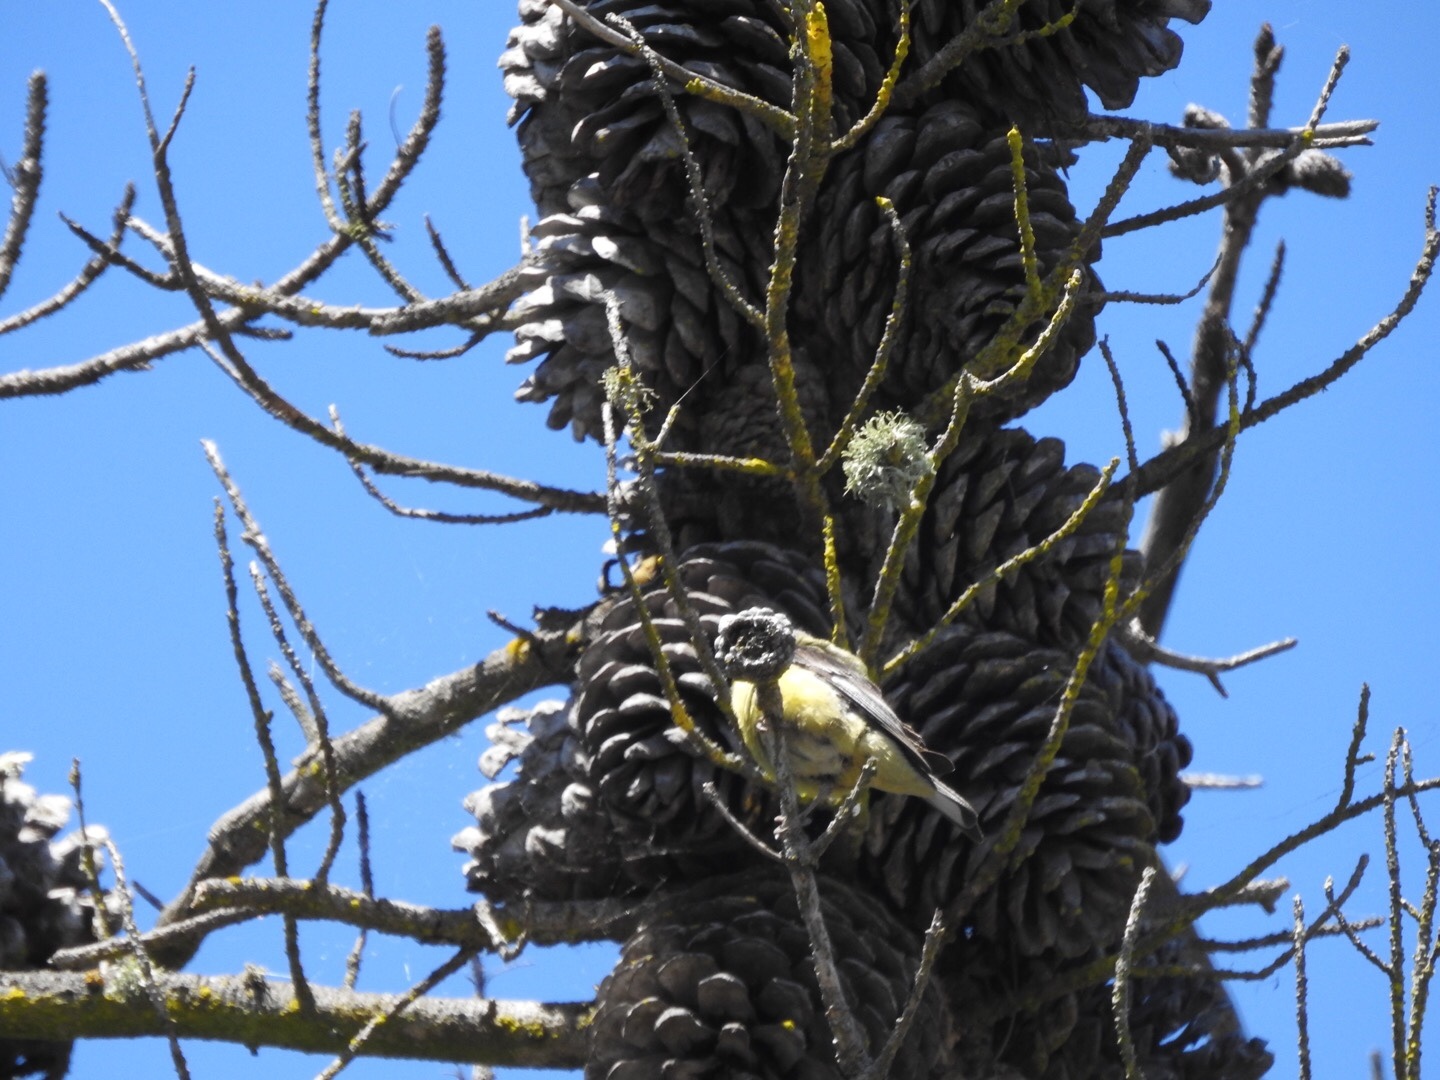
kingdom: Animalia
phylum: Chordata
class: Aves
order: Passeriformes
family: Fringillidae
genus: Spinus
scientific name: Spinus psaltria
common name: Lesser goldfinch
